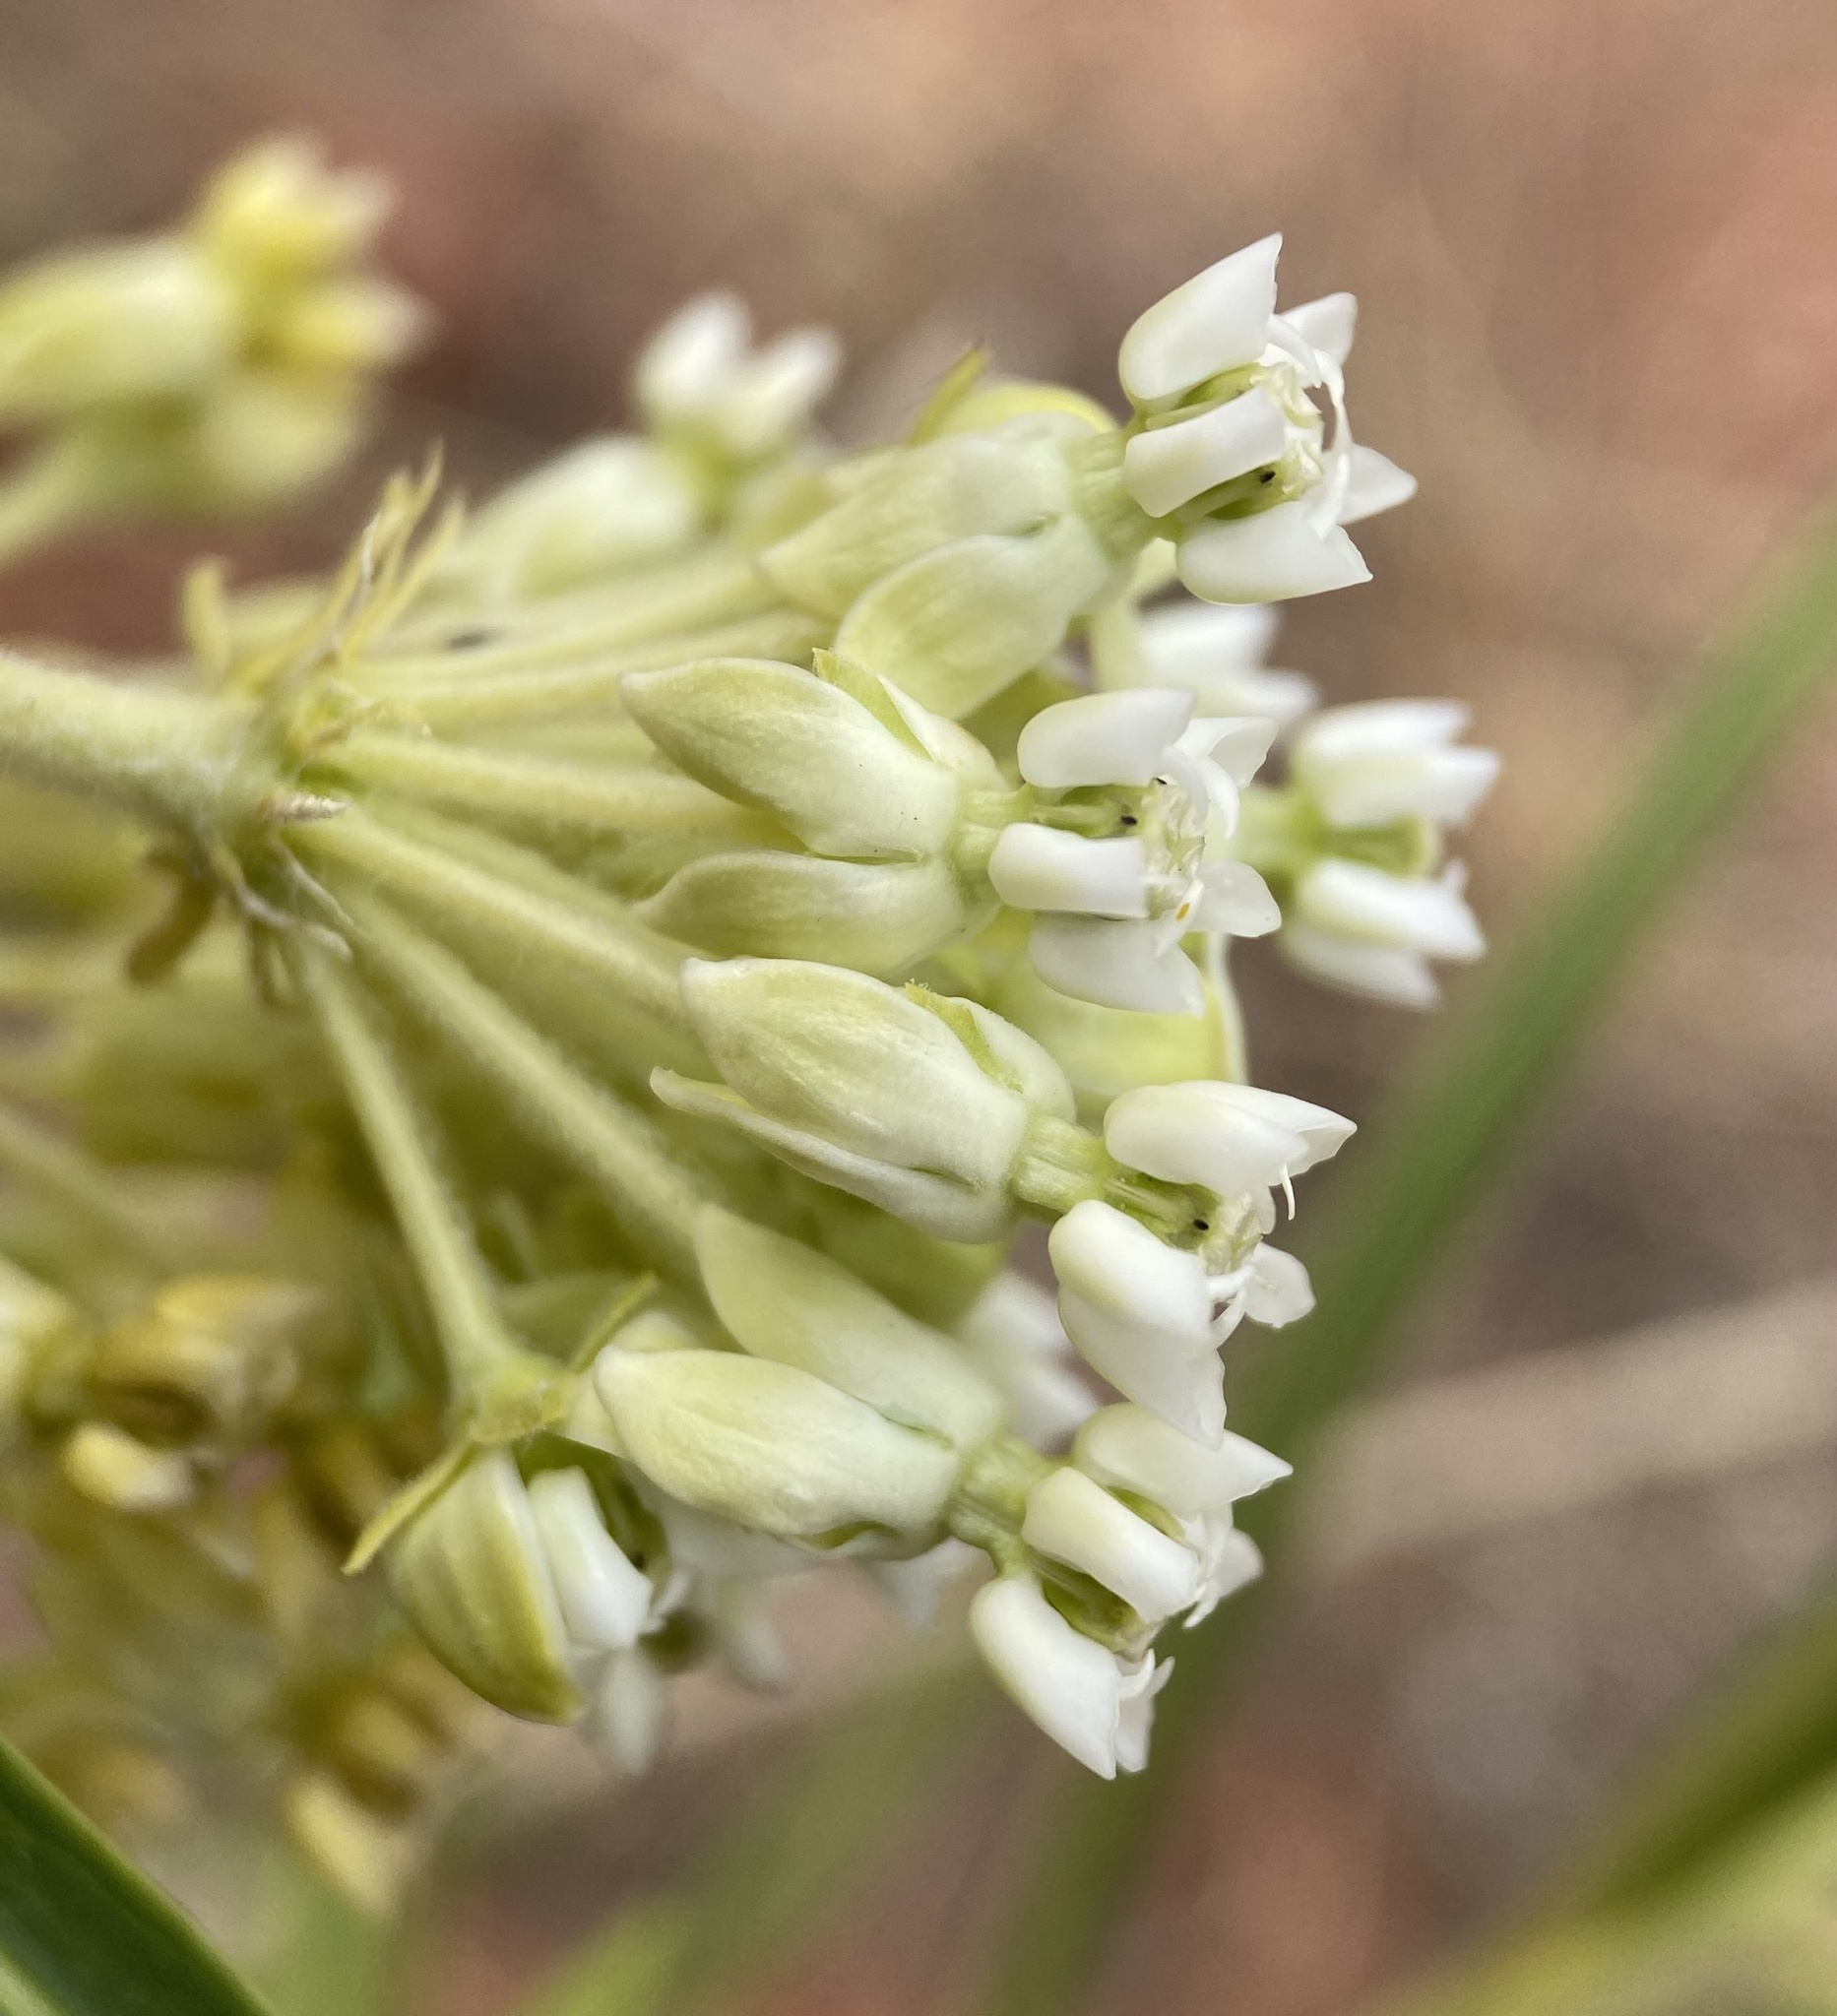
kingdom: Plantae
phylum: Tracheophyta
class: Magnoliopsida
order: Gentianales
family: Apocynaceae
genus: Asclepias
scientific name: Asclepias labriformis
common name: Labriformis milkweed
